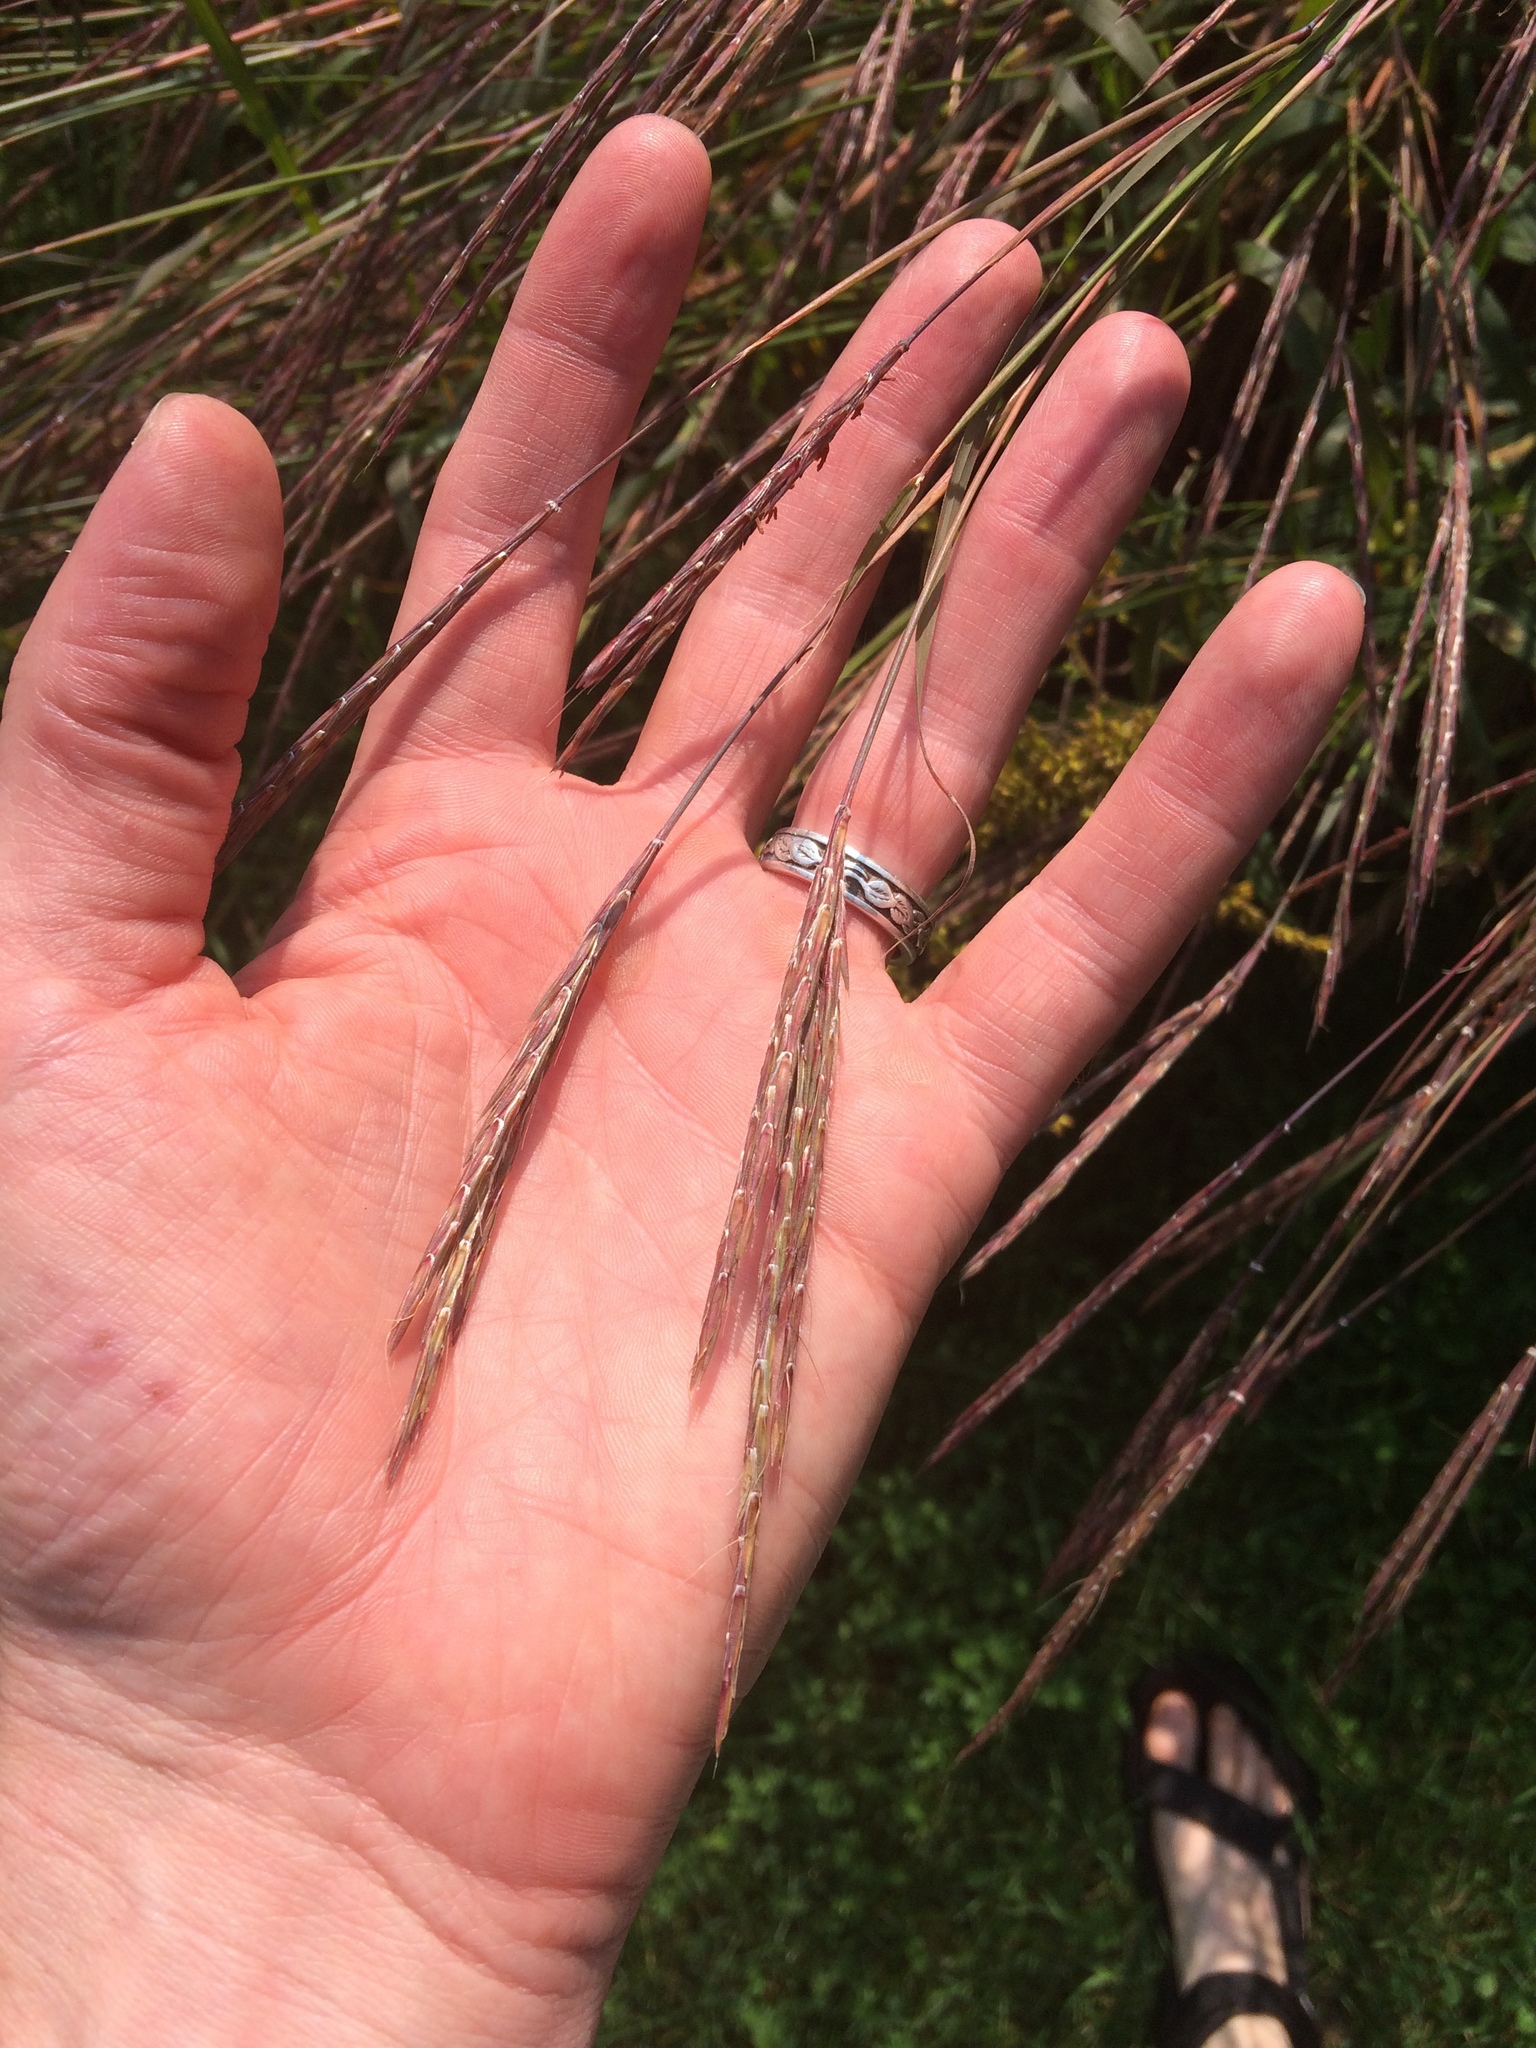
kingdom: Plantae
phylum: Tracheophyta
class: Liliopsida
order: Poales
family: Poaceae
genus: Andropogon
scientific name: Andropogon gerardi
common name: Big bluestem
